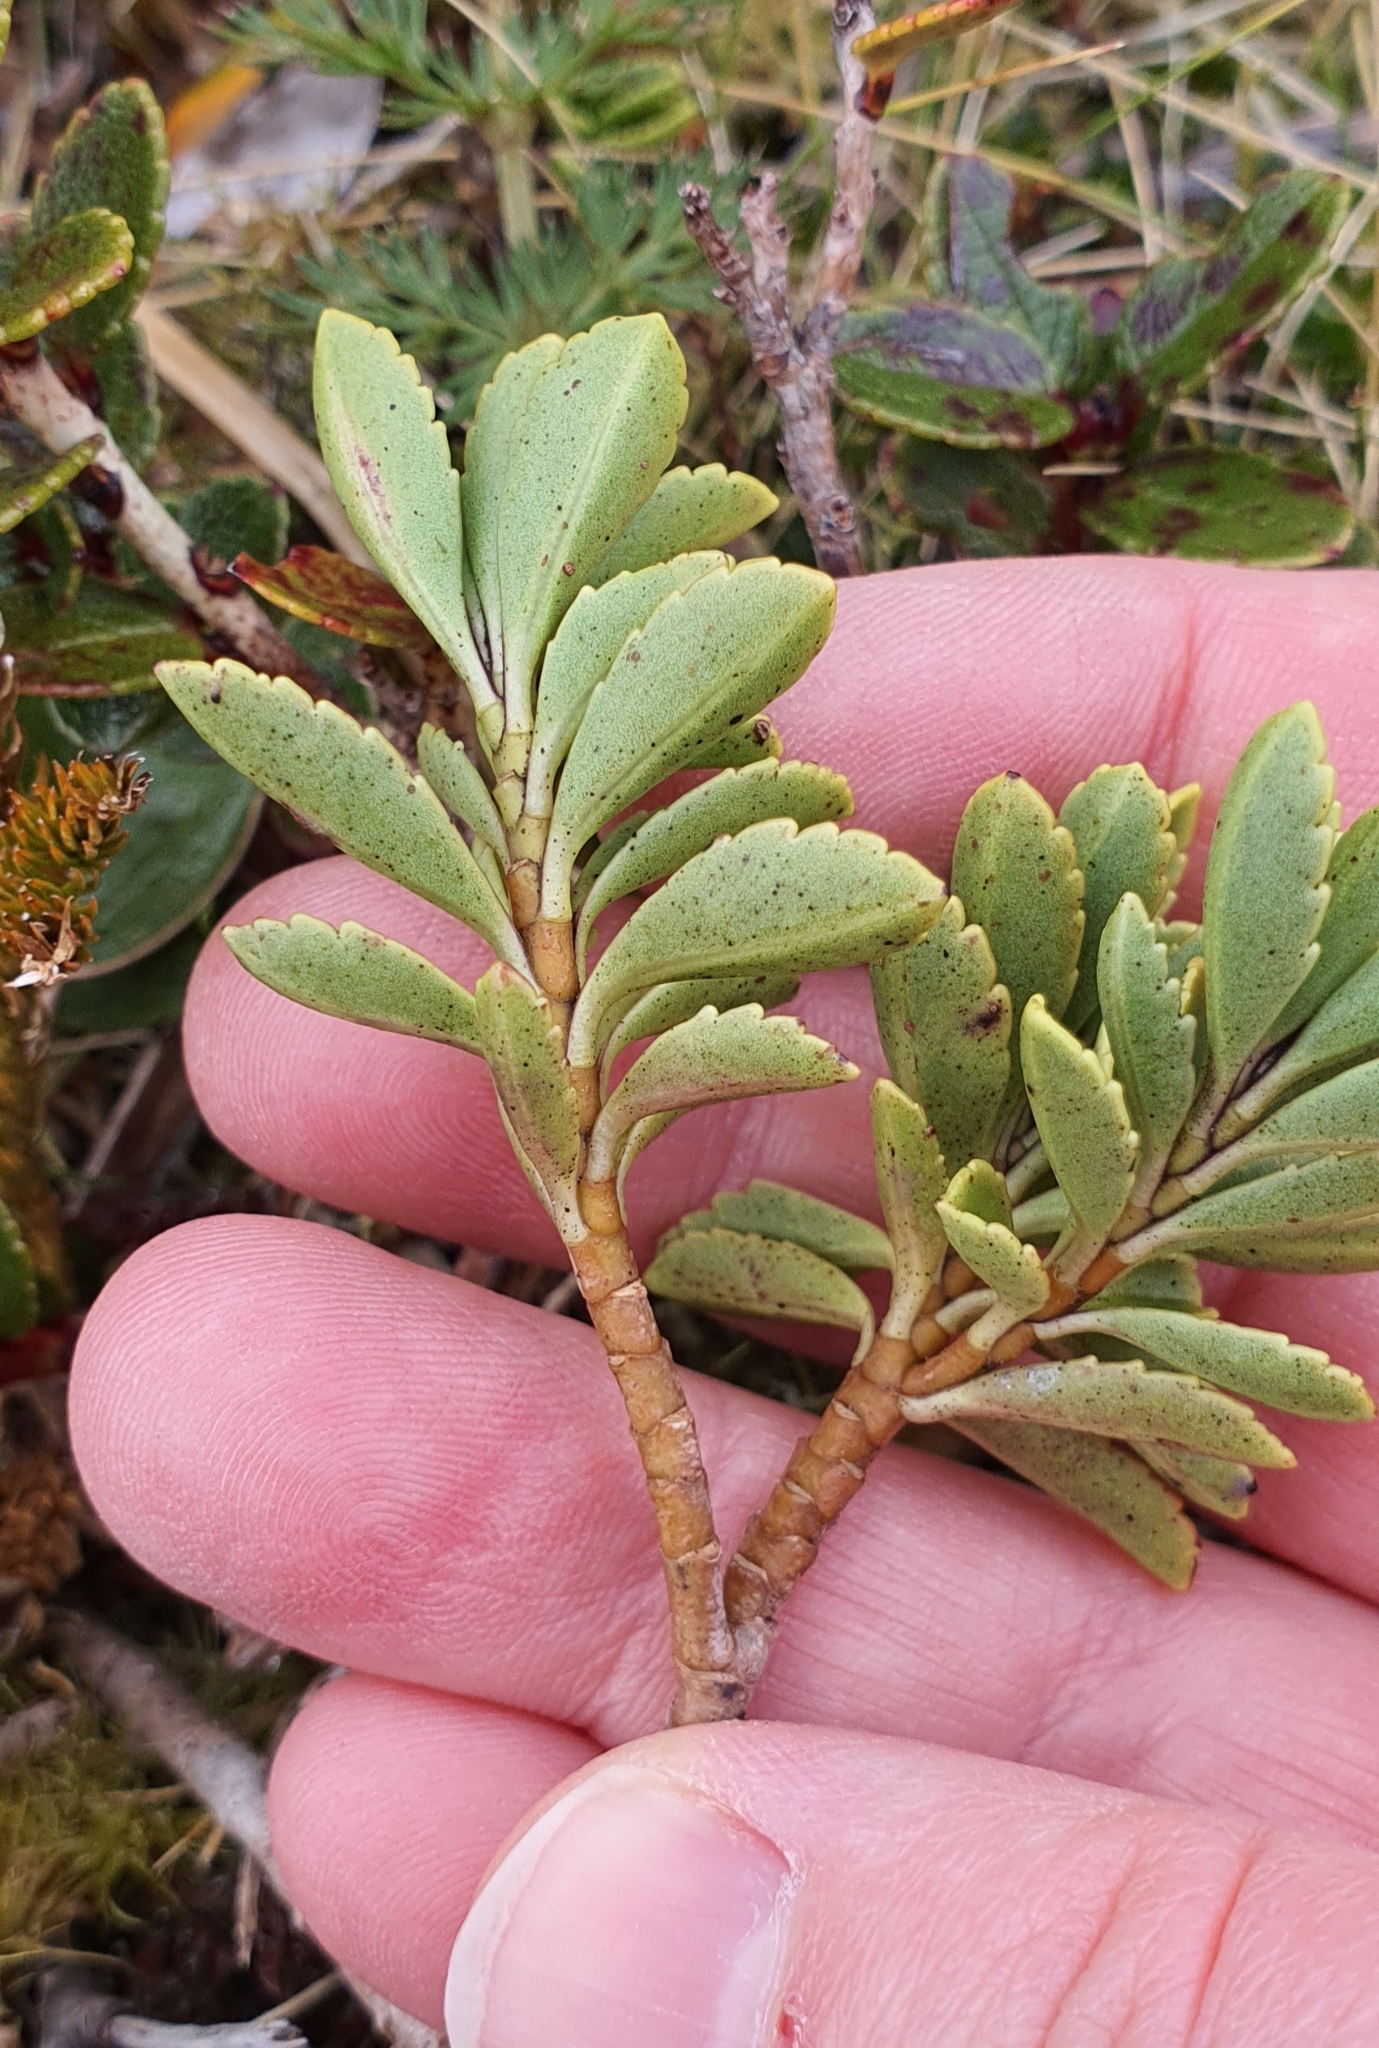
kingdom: Plantae
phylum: Tracheophyta
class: Magnoliopsida
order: Lamiales
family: Plantaginaceae
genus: Veronica
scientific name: Veronica macrantha
